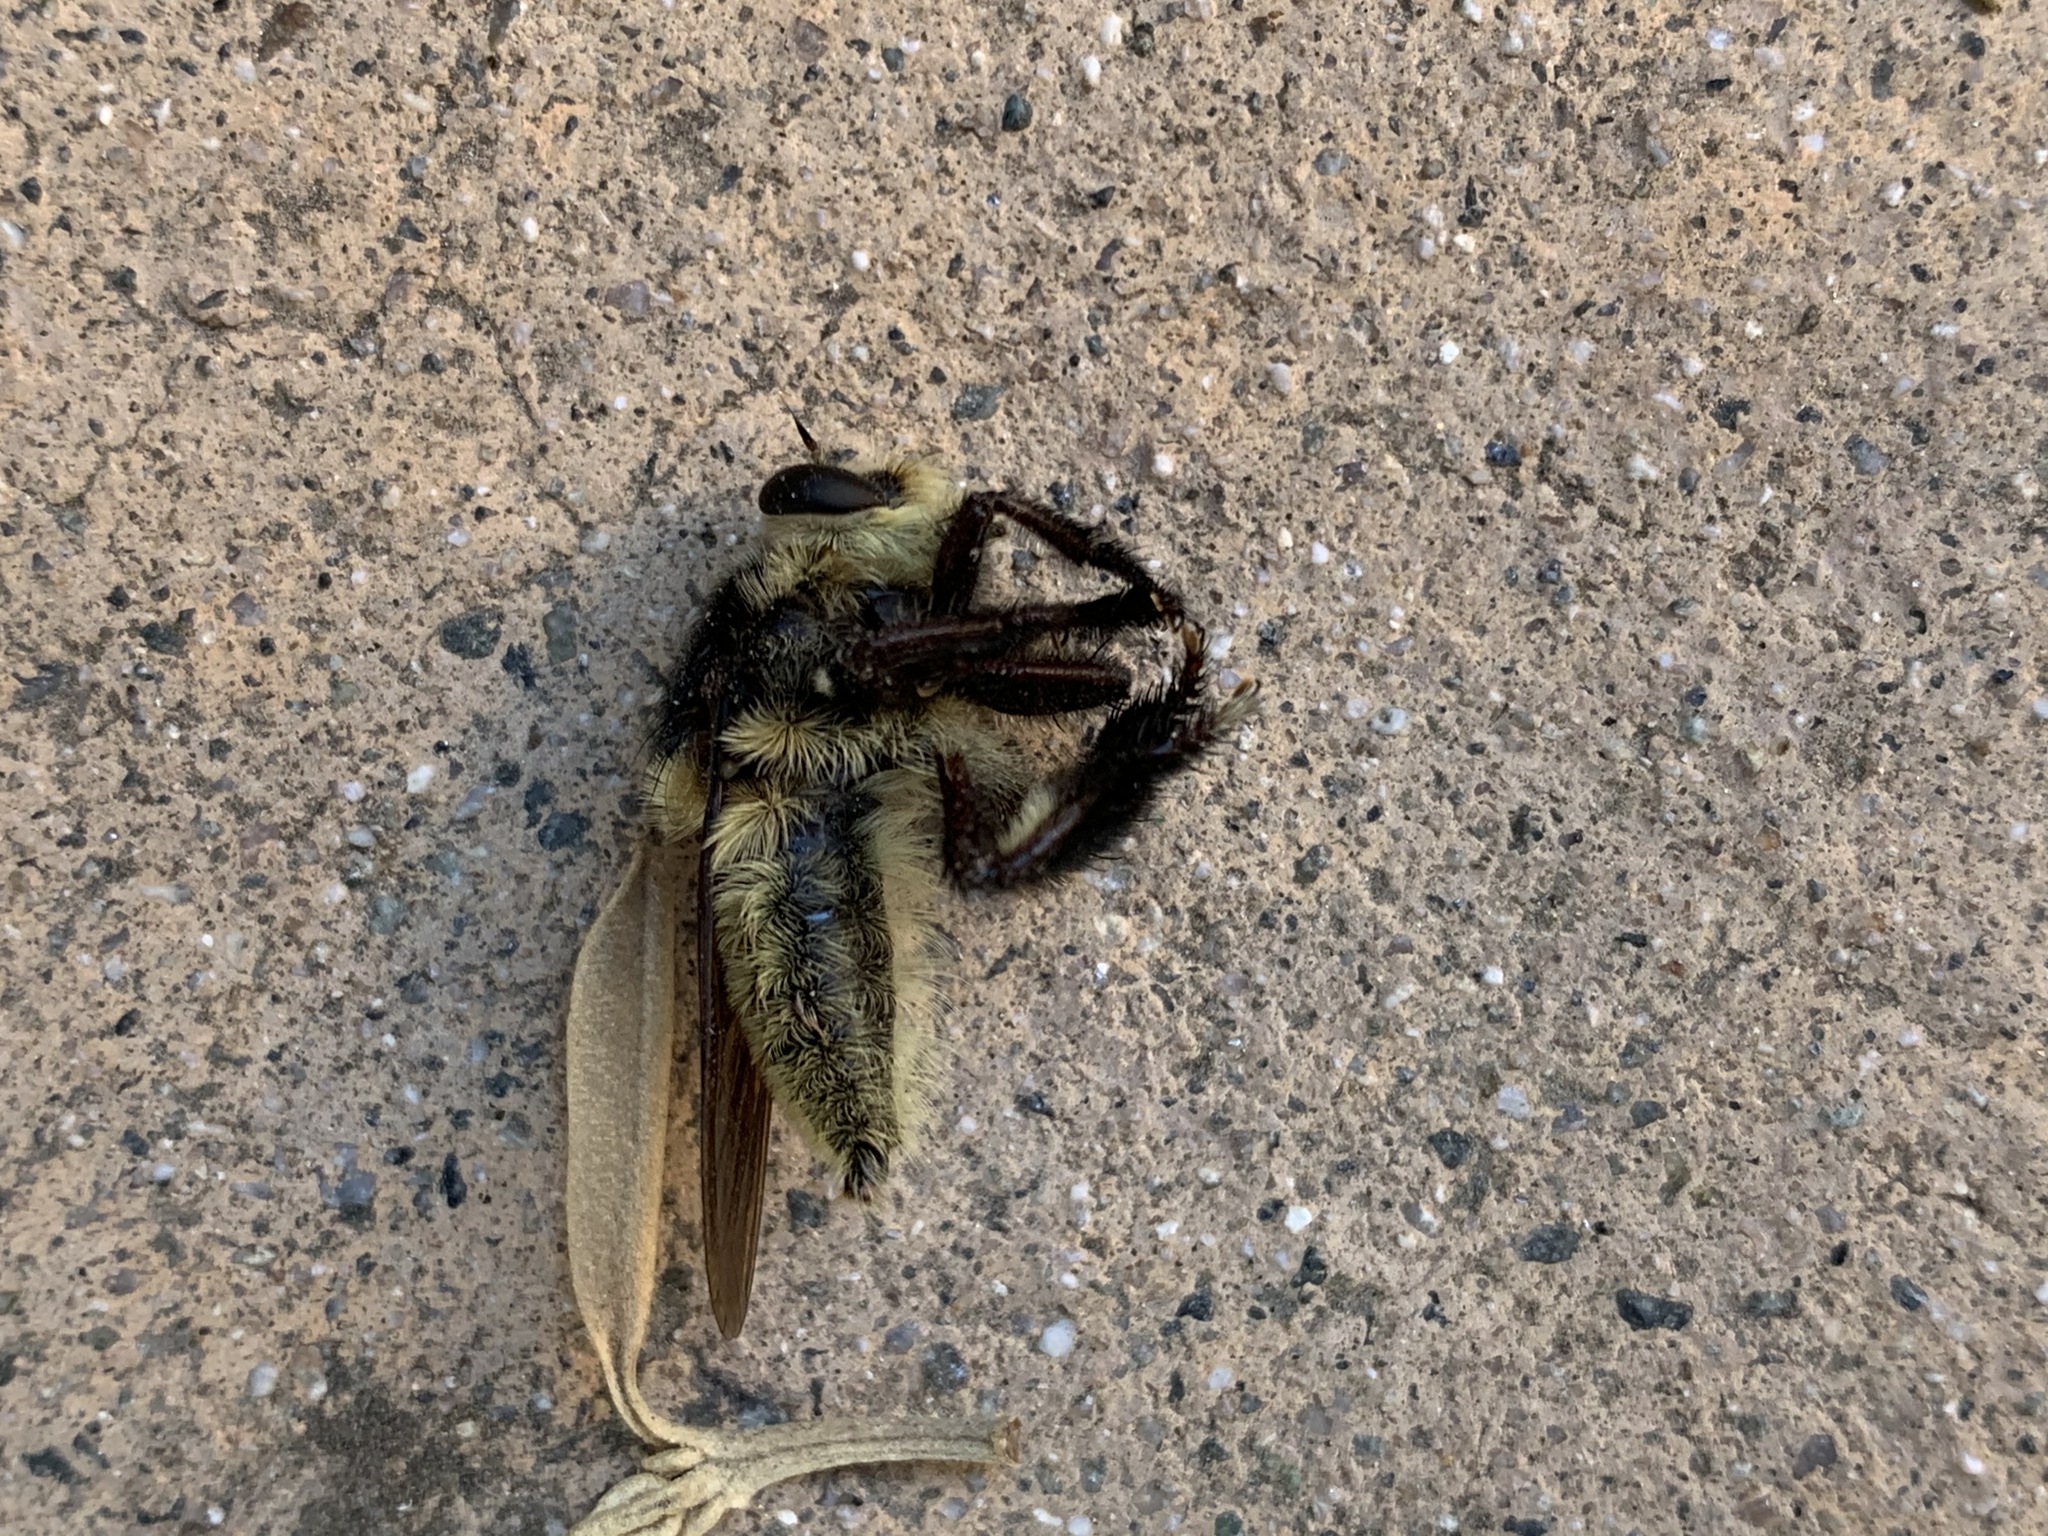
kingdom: Animalia
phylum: Arthropoda
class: Insecta
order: Diptera
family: Asilidae
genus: Mallophora
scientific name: Mallophora fautrix
